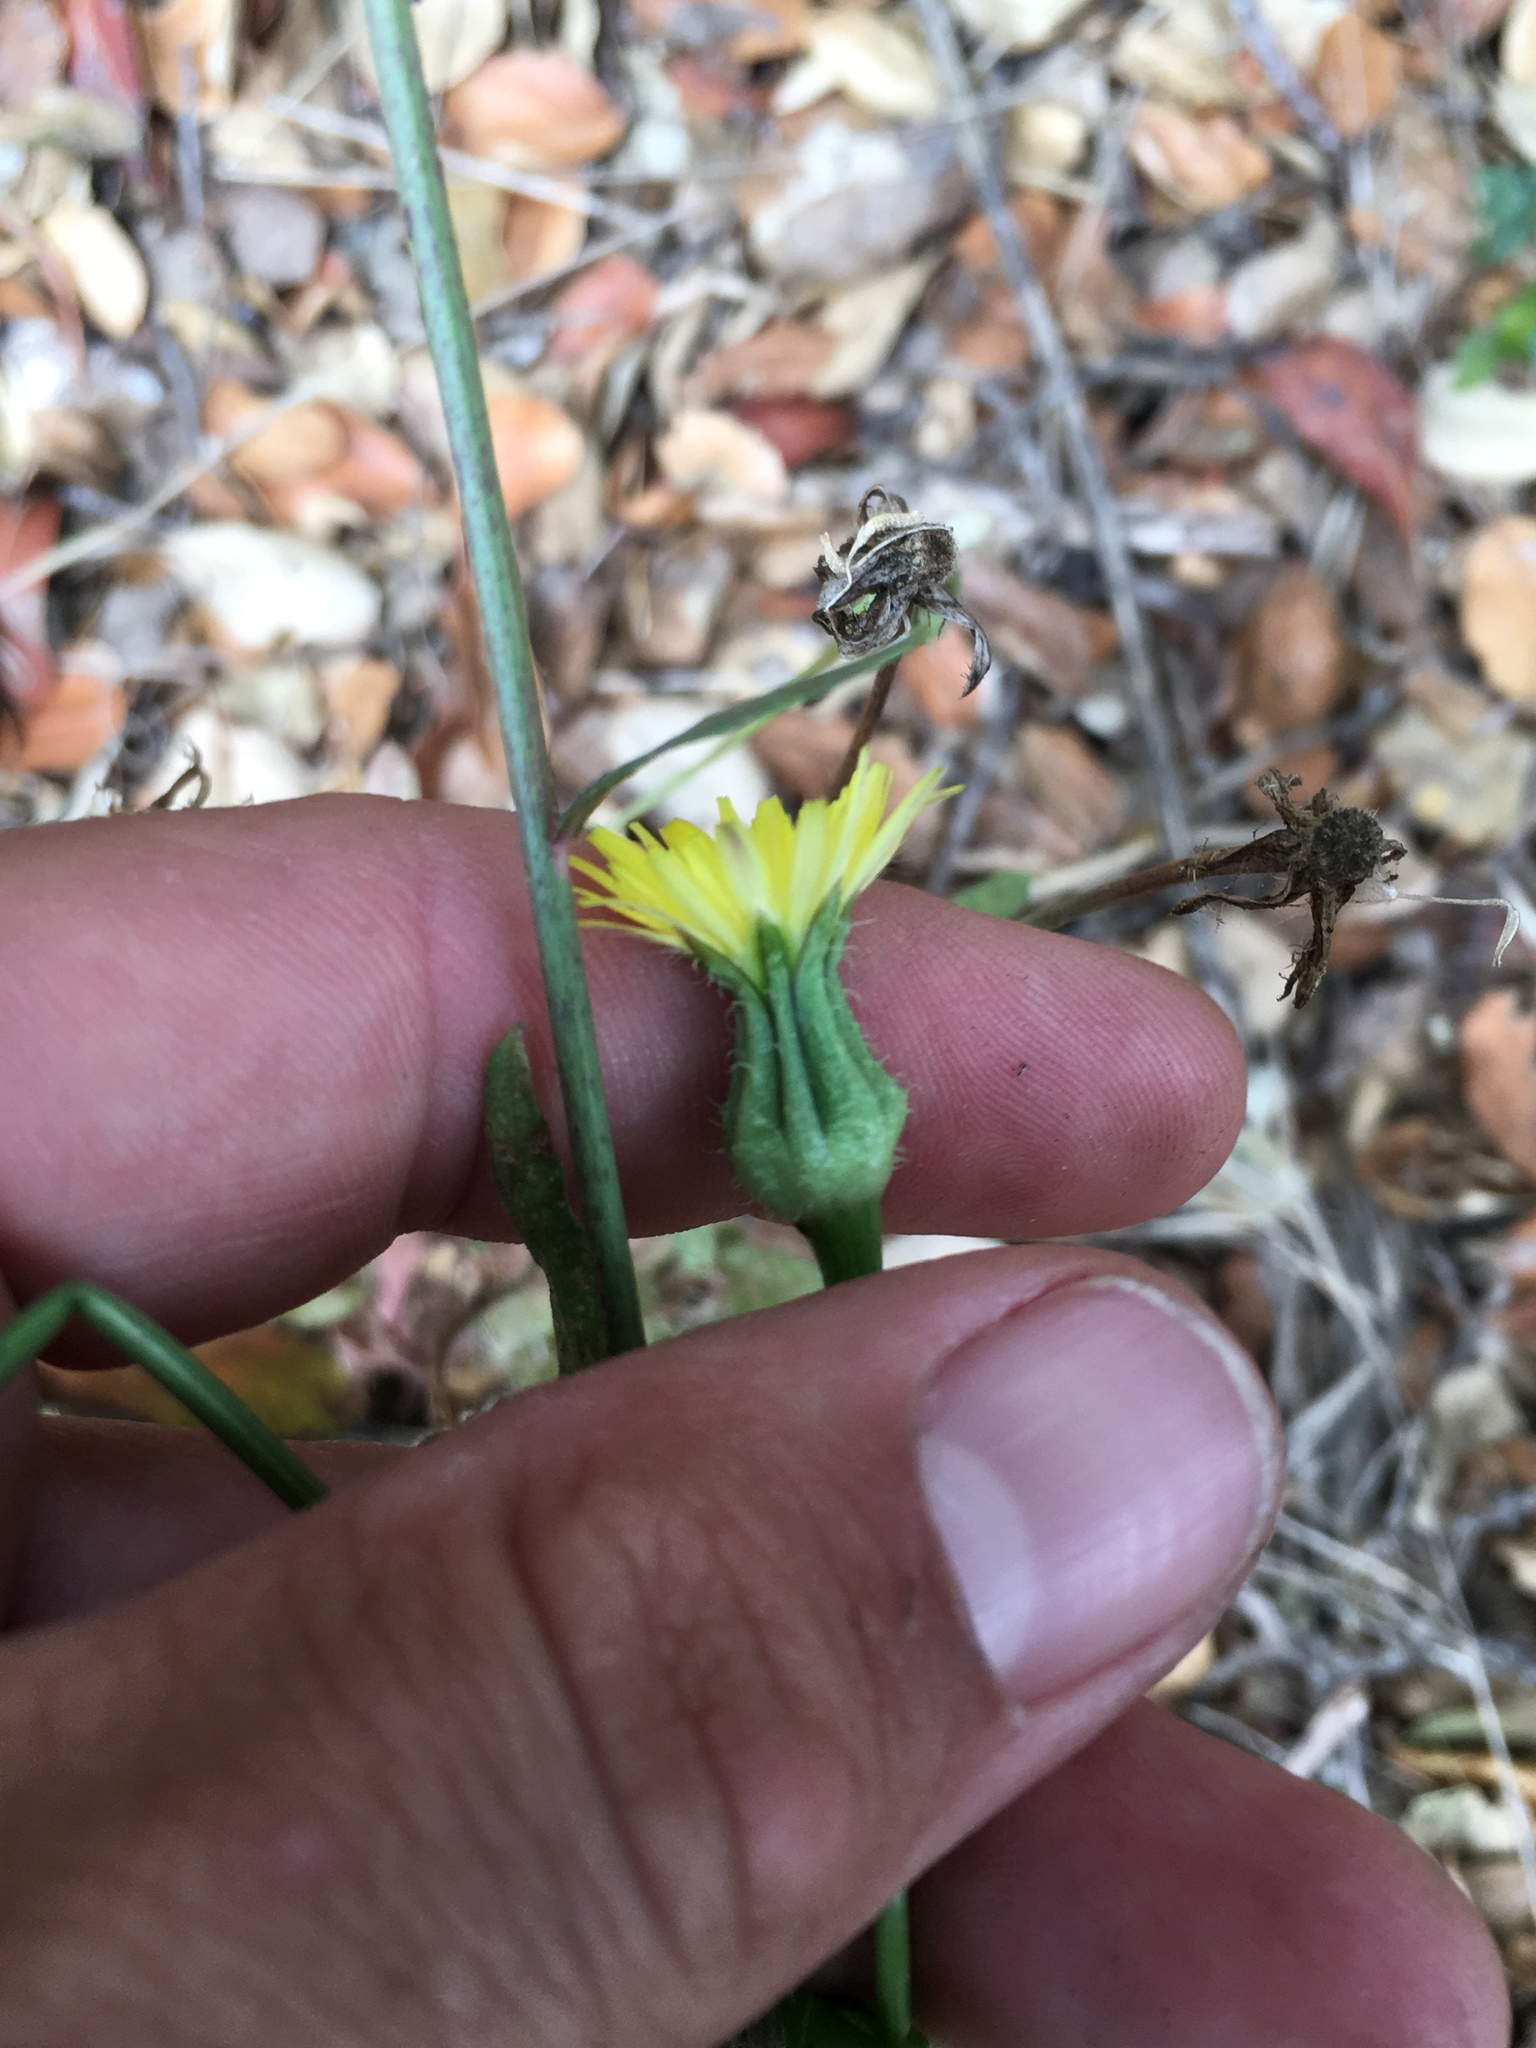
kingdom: Plantae
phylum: Tracheophyta
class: Magnoliopsida
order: Asterales
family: Asteraceae
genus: Urospermum
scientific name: Urospermum picroides
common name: False hawkbit
